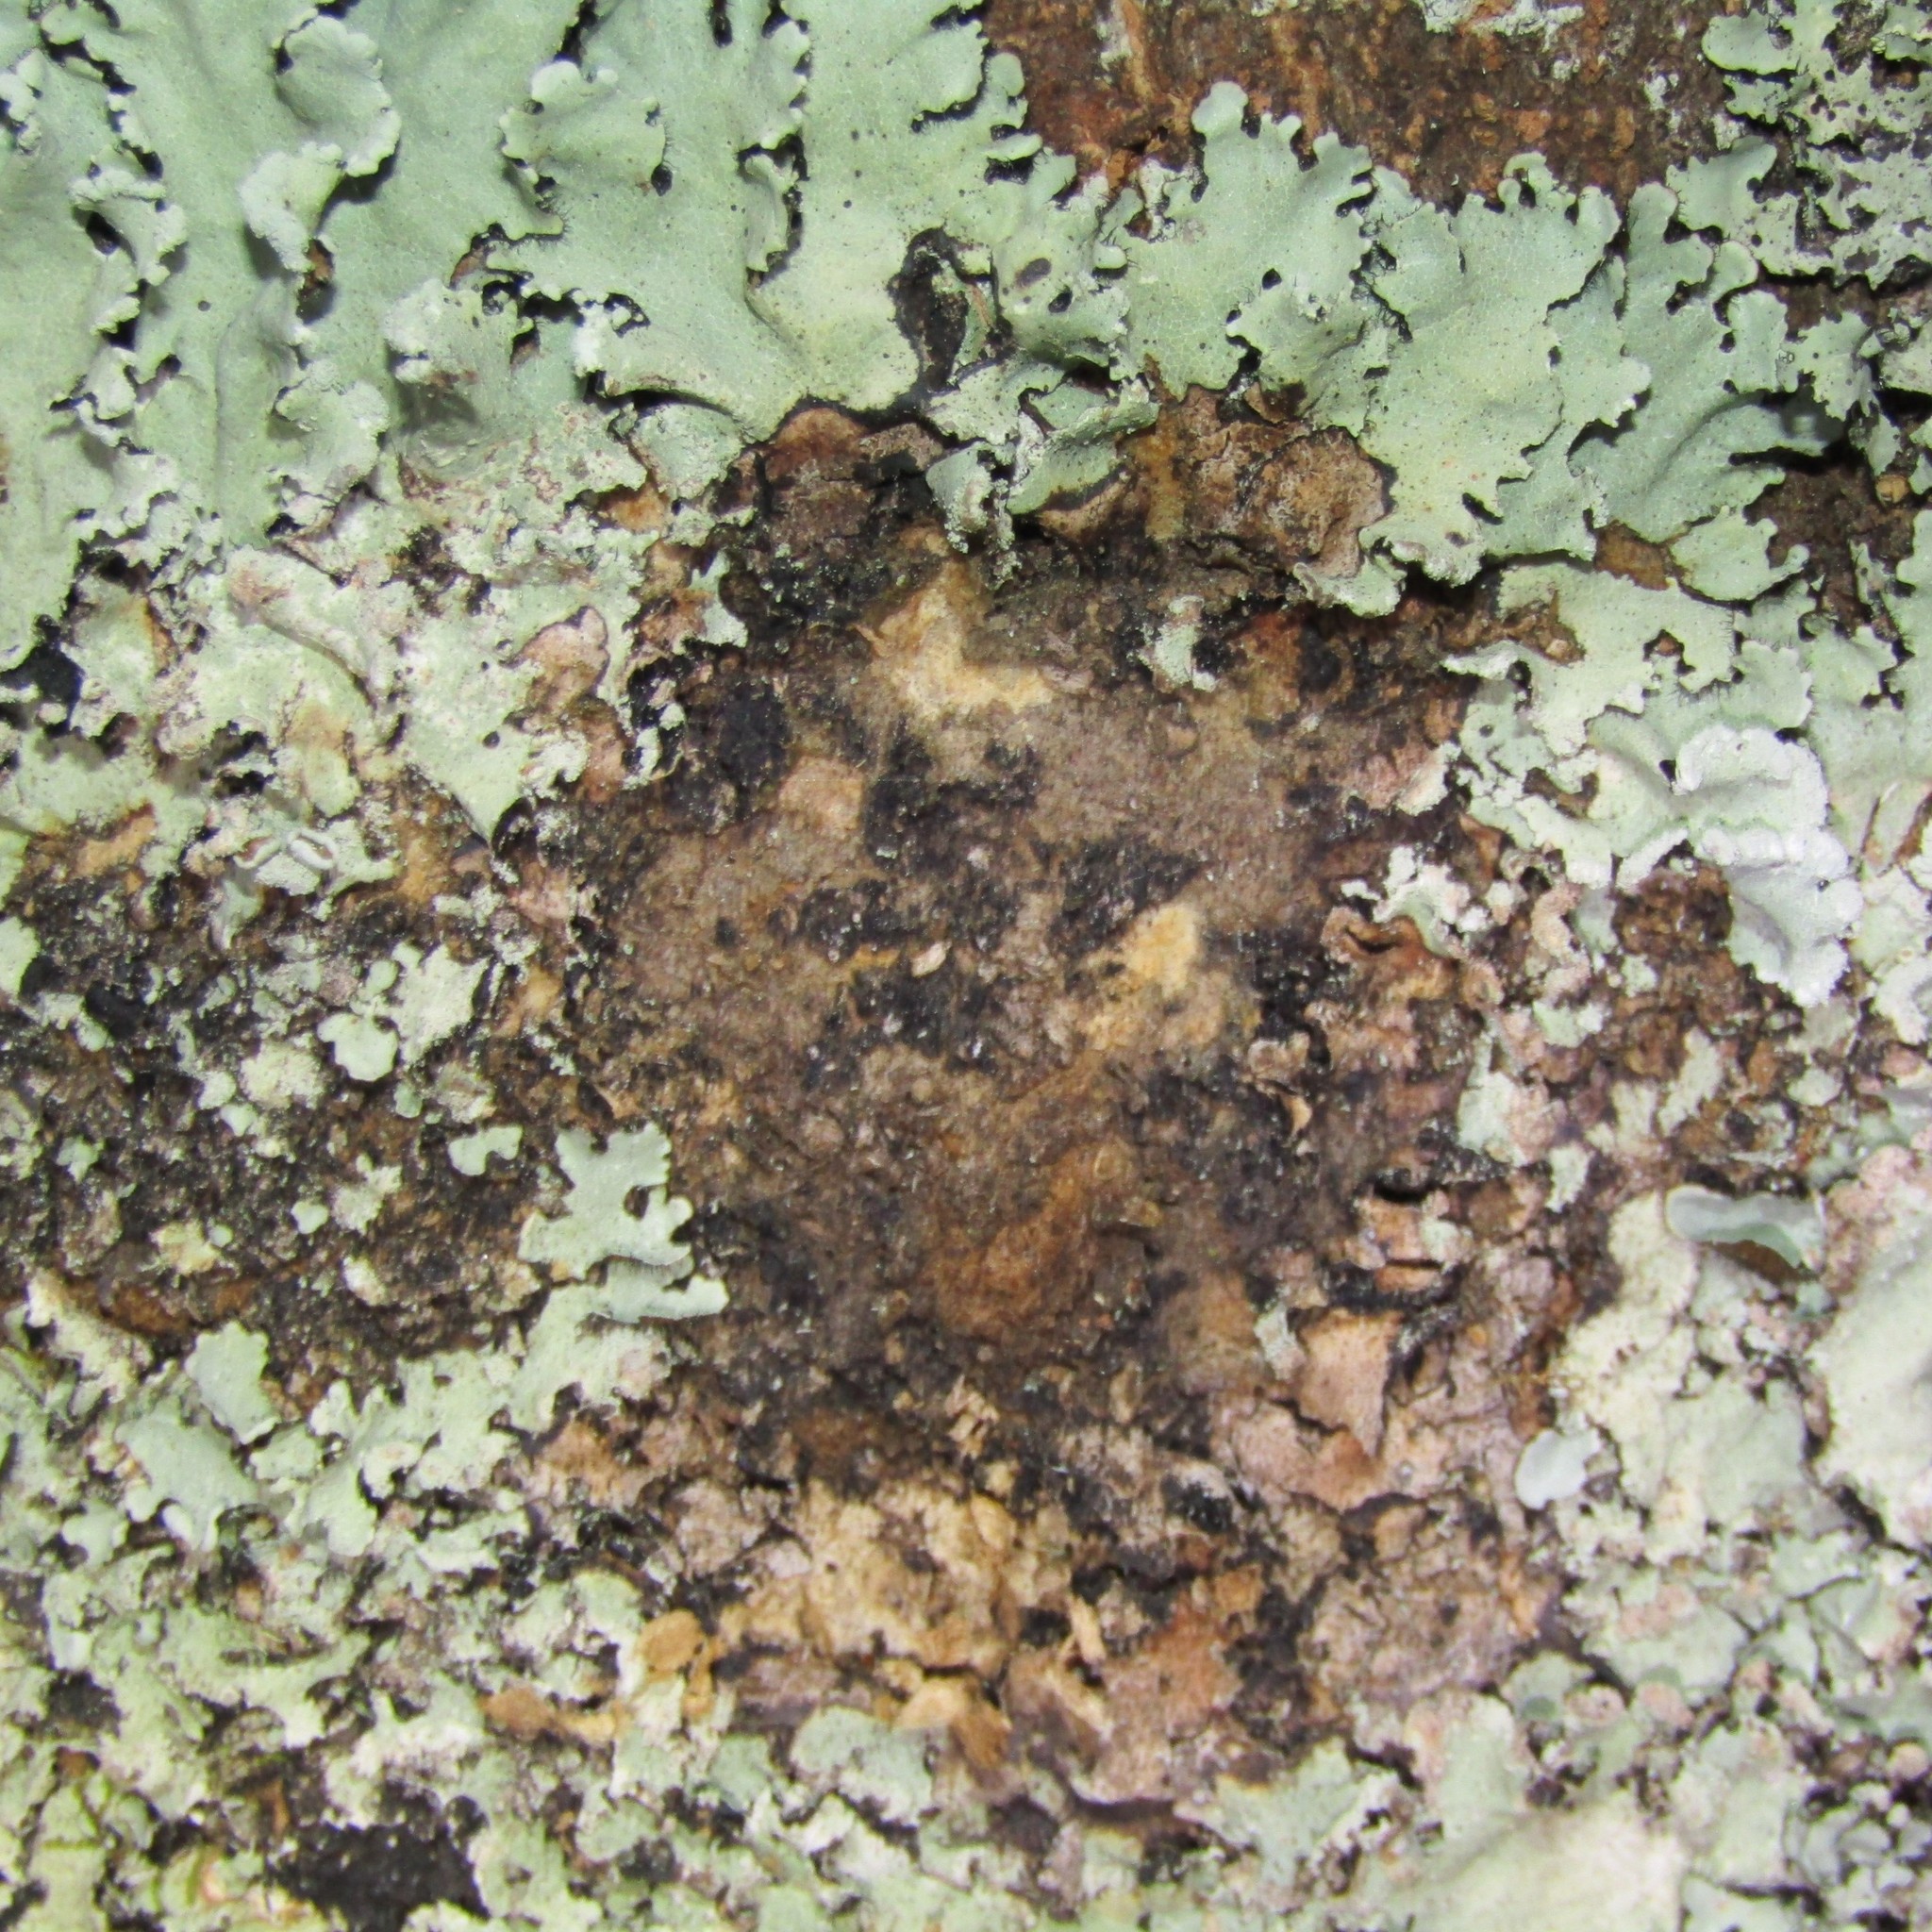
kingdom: Animalia
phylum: Arthropoda
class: Insecta
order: Lepidoptera
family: Hepialidae
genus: Aenetus
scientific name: Aenetus virescens
